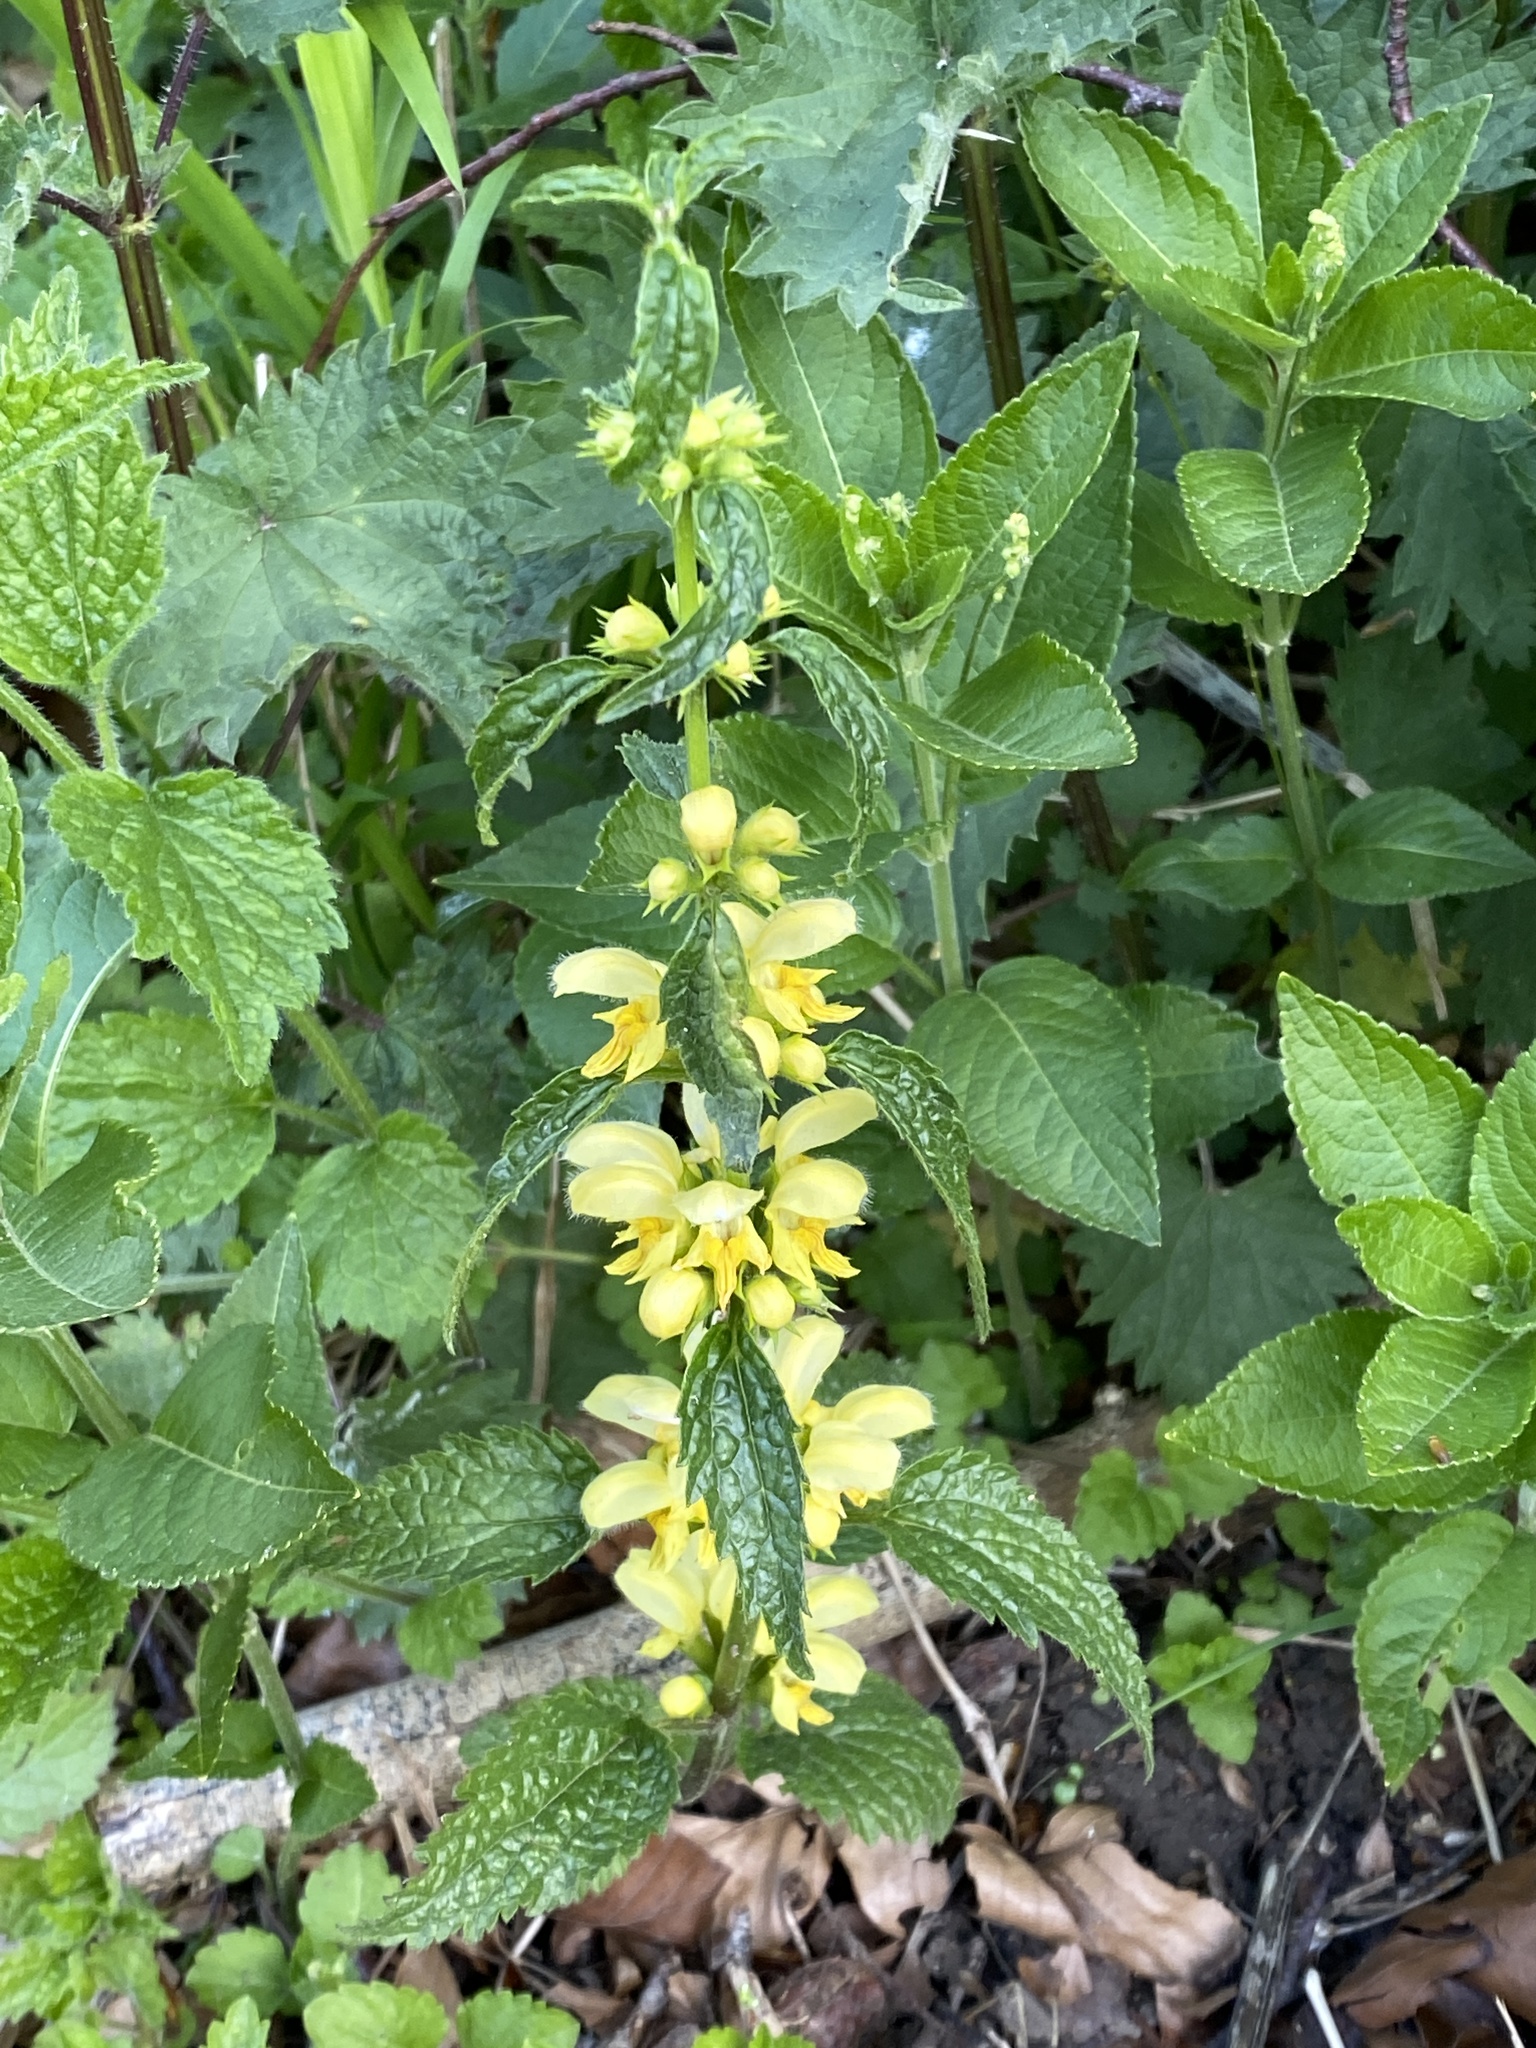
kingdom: Plantae
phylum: Tracheophyta
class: Magnoliopsida
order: Lamiales
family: Lamiaceae
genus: Lamium
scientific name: Lamium galeobdolon
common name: Yellow archangel
